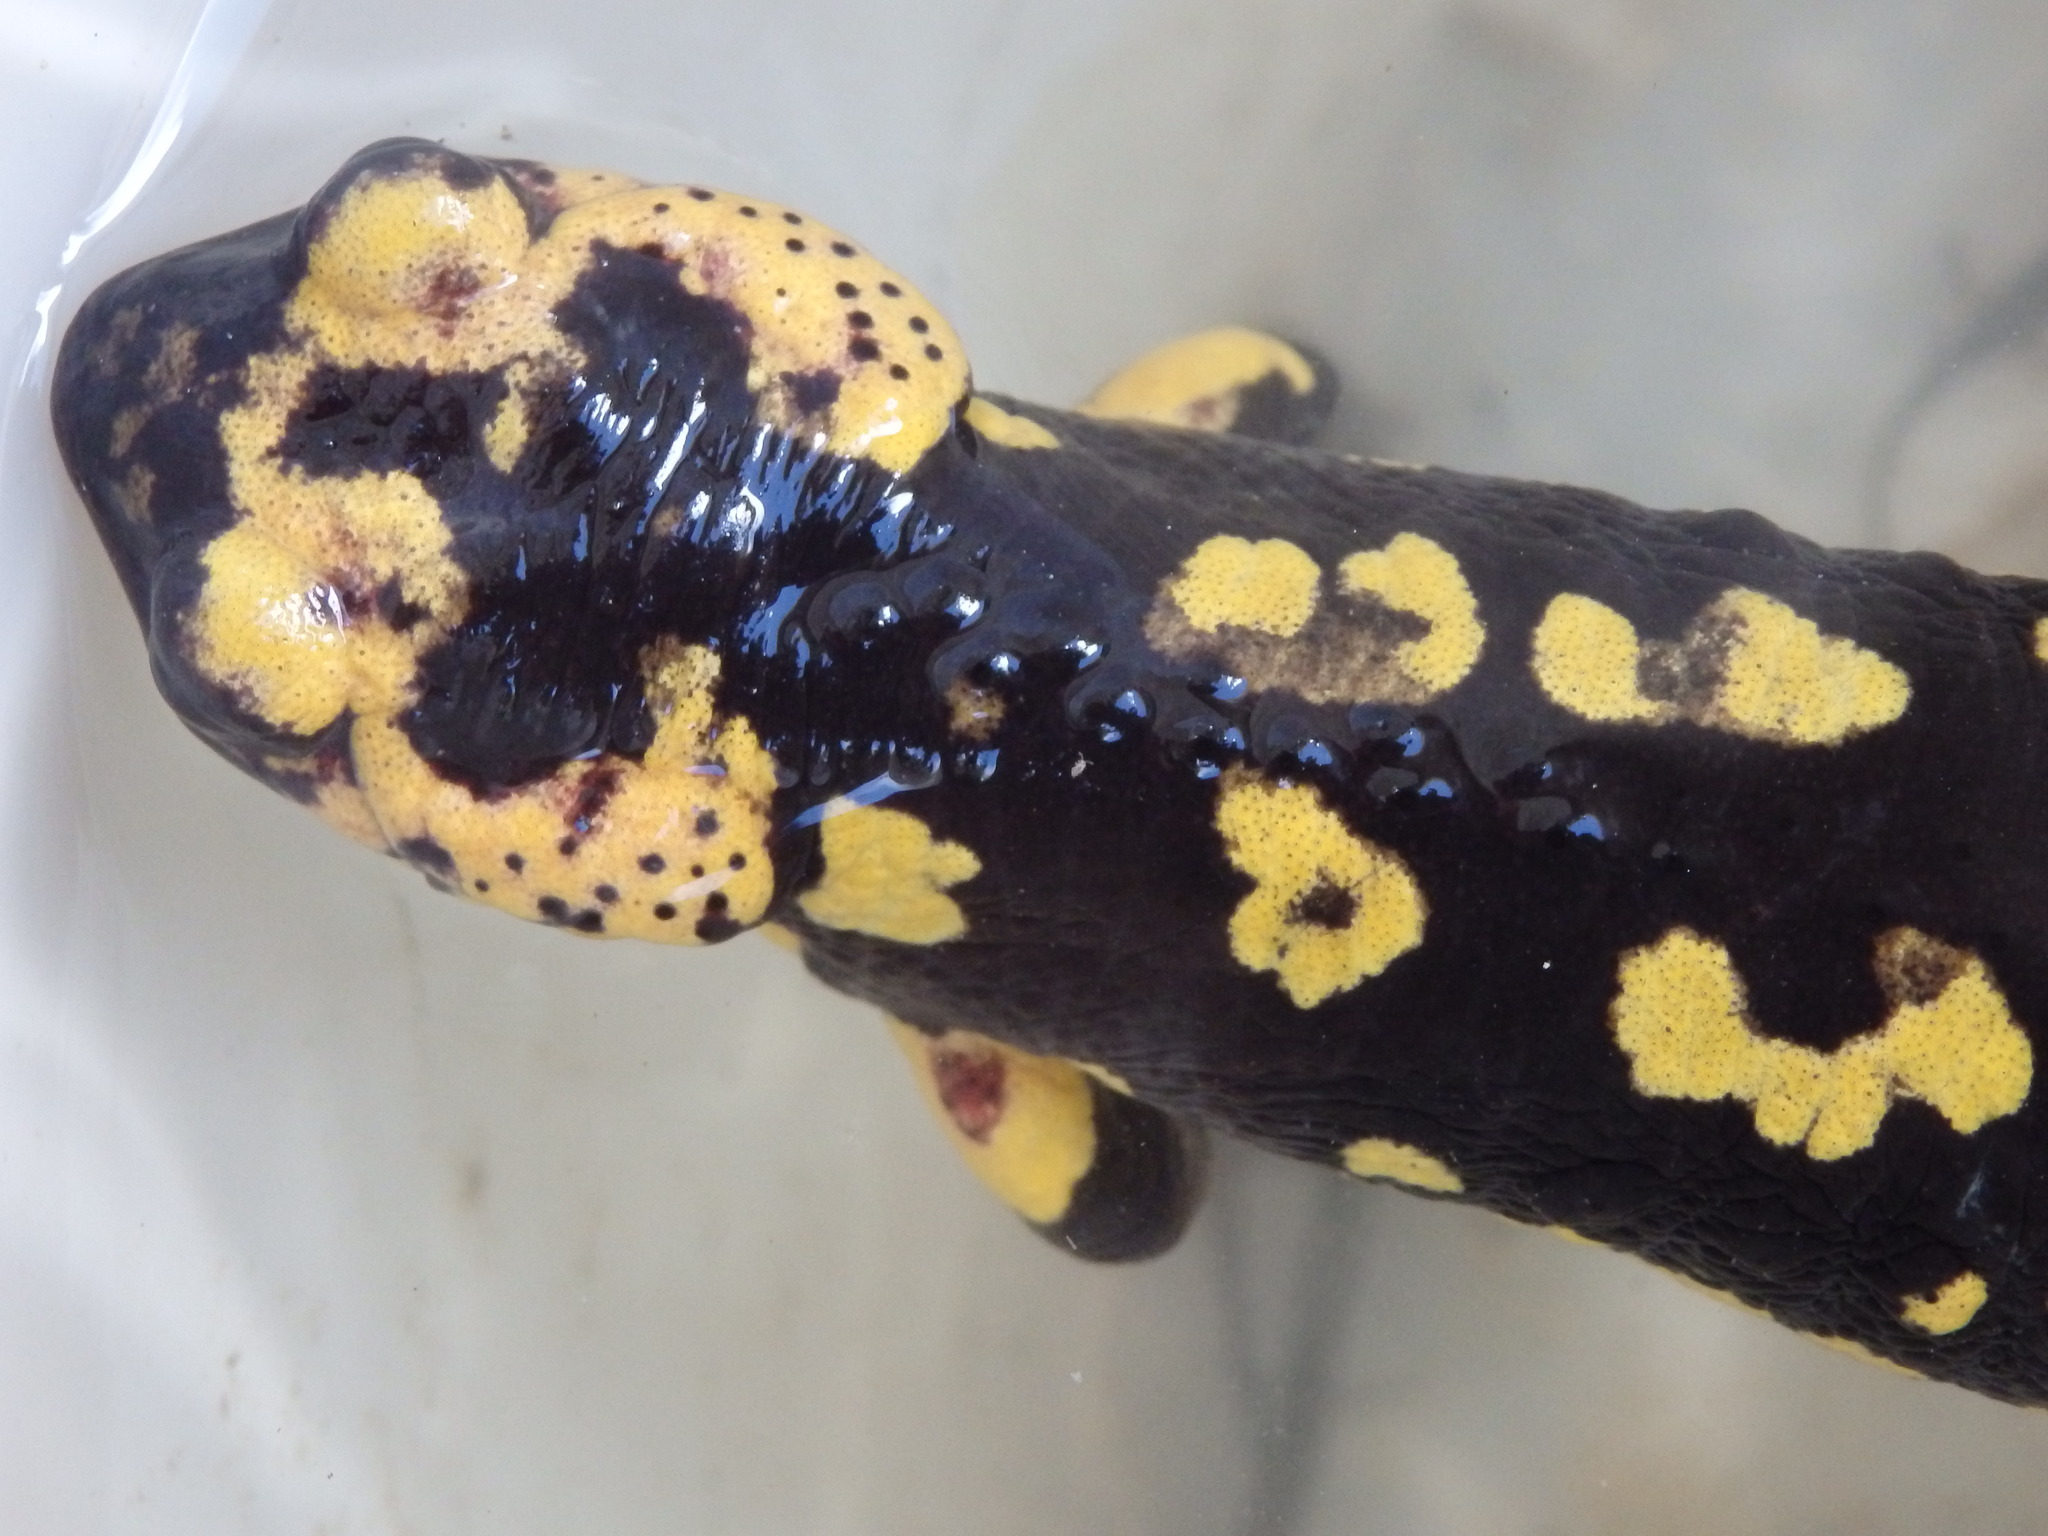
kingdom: Animalia
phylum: Chordata
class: Amphibia
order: Caudata
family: Salamandridae
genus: Salamandra
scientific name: Salamandra salamandra
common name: Fire salamander
